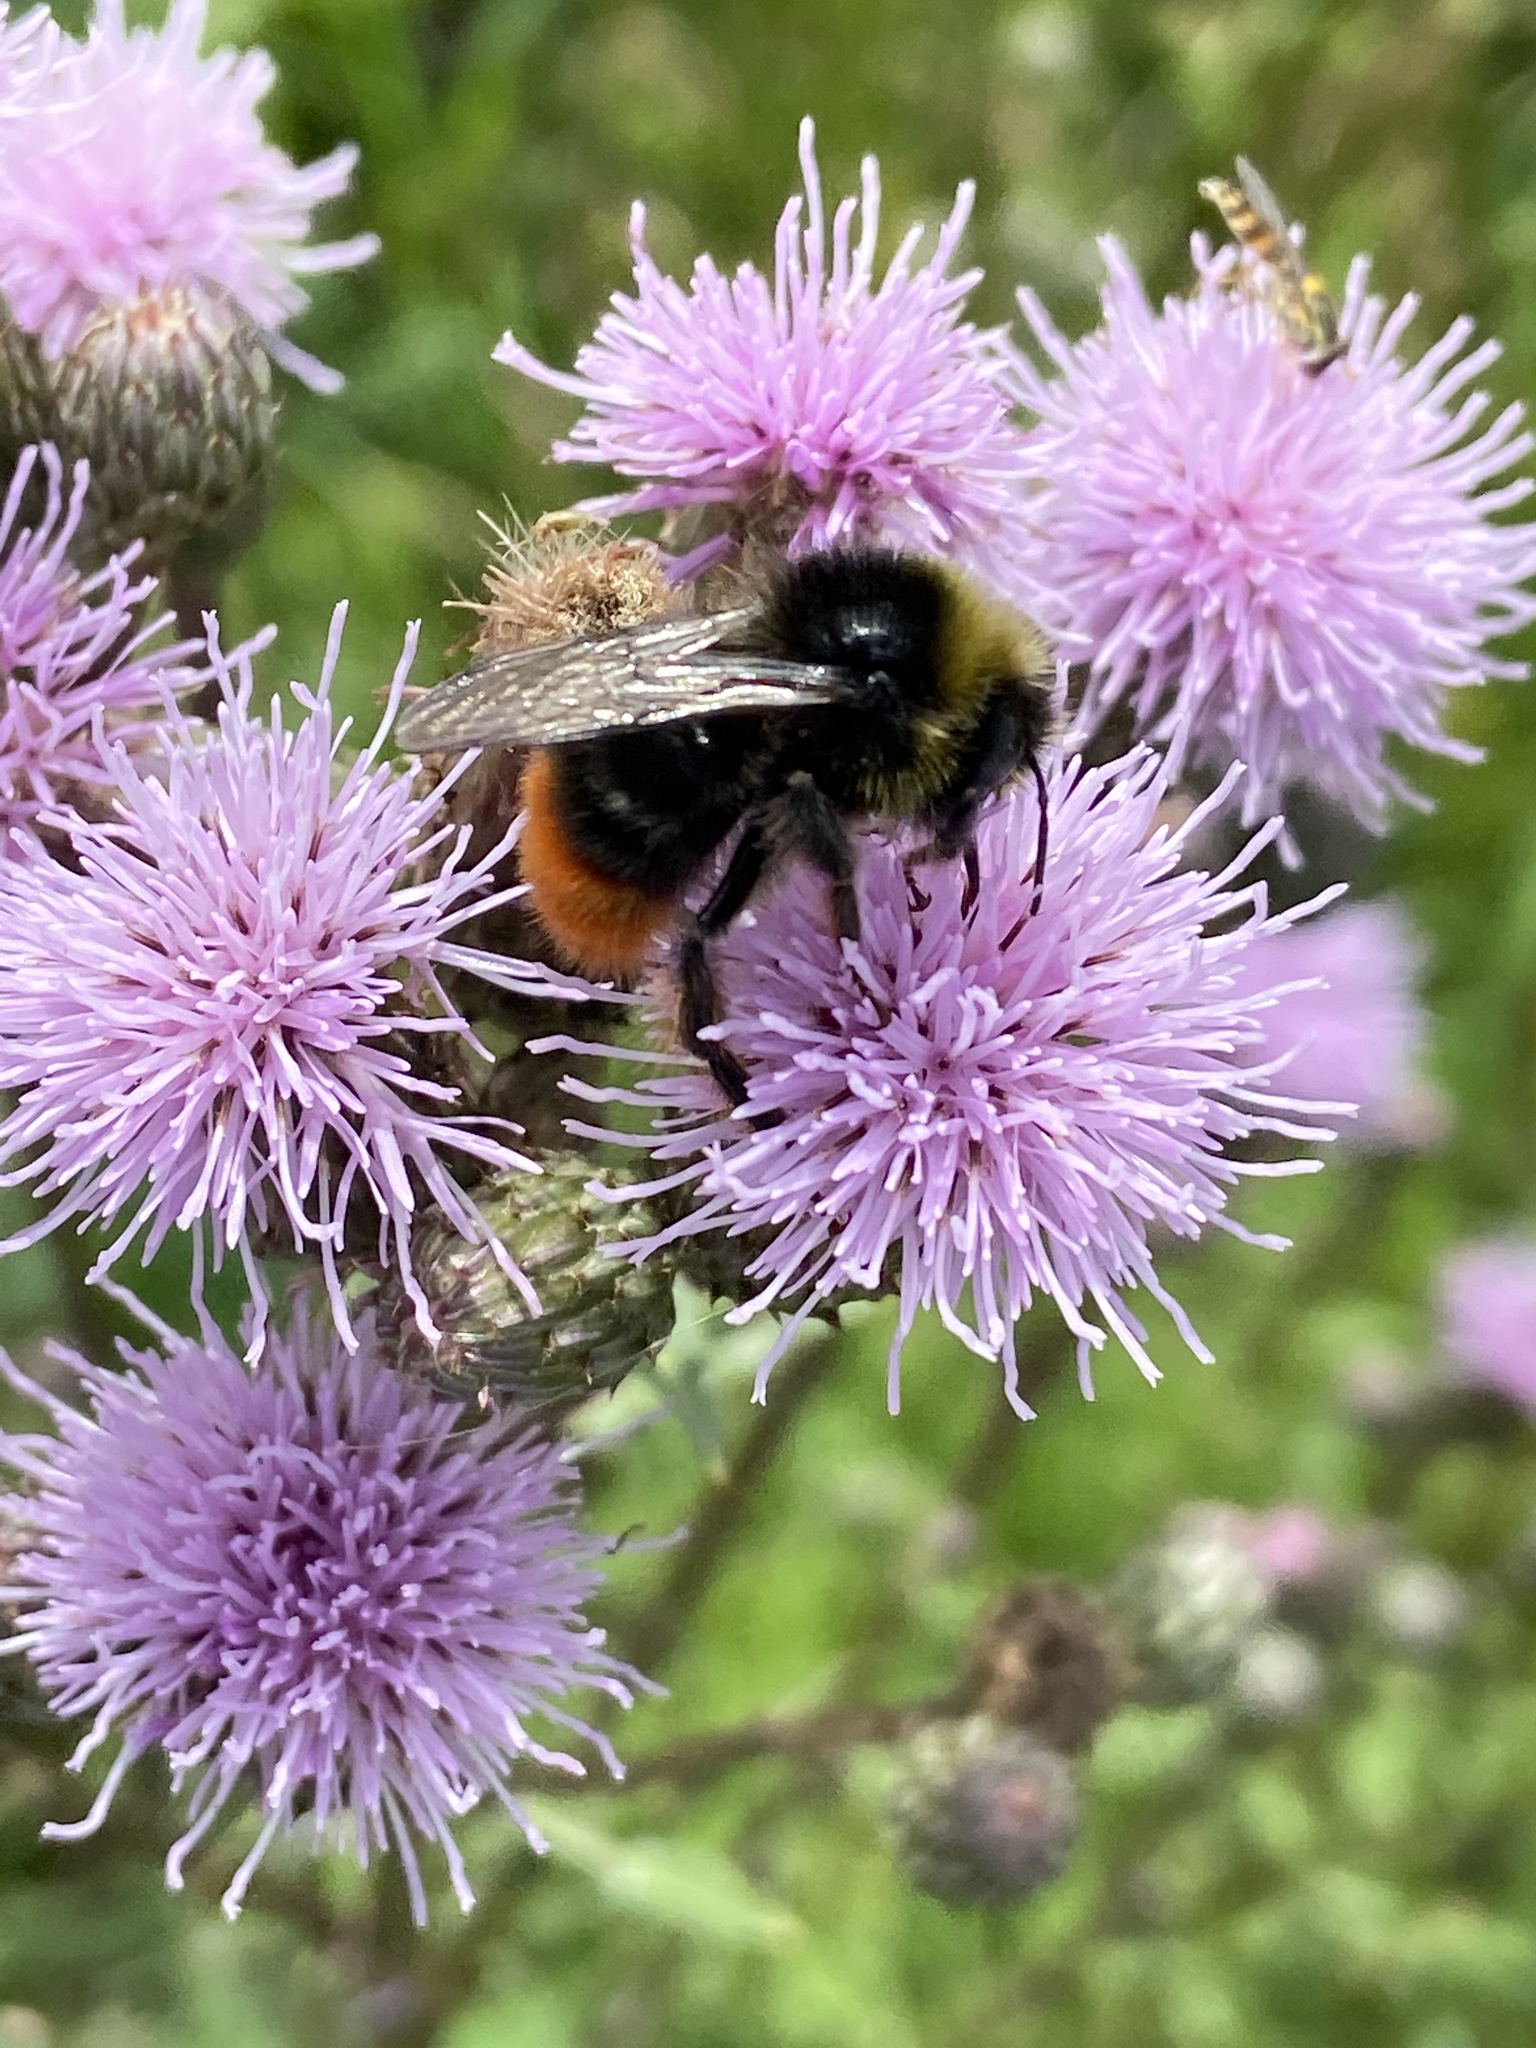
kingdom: Animalia
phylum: Arthropoda
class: Insecta
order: Hymenoptera
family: Apidae
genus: Bombus
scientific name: Bombus lapidarius
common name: Large red-tailed humble-bee
